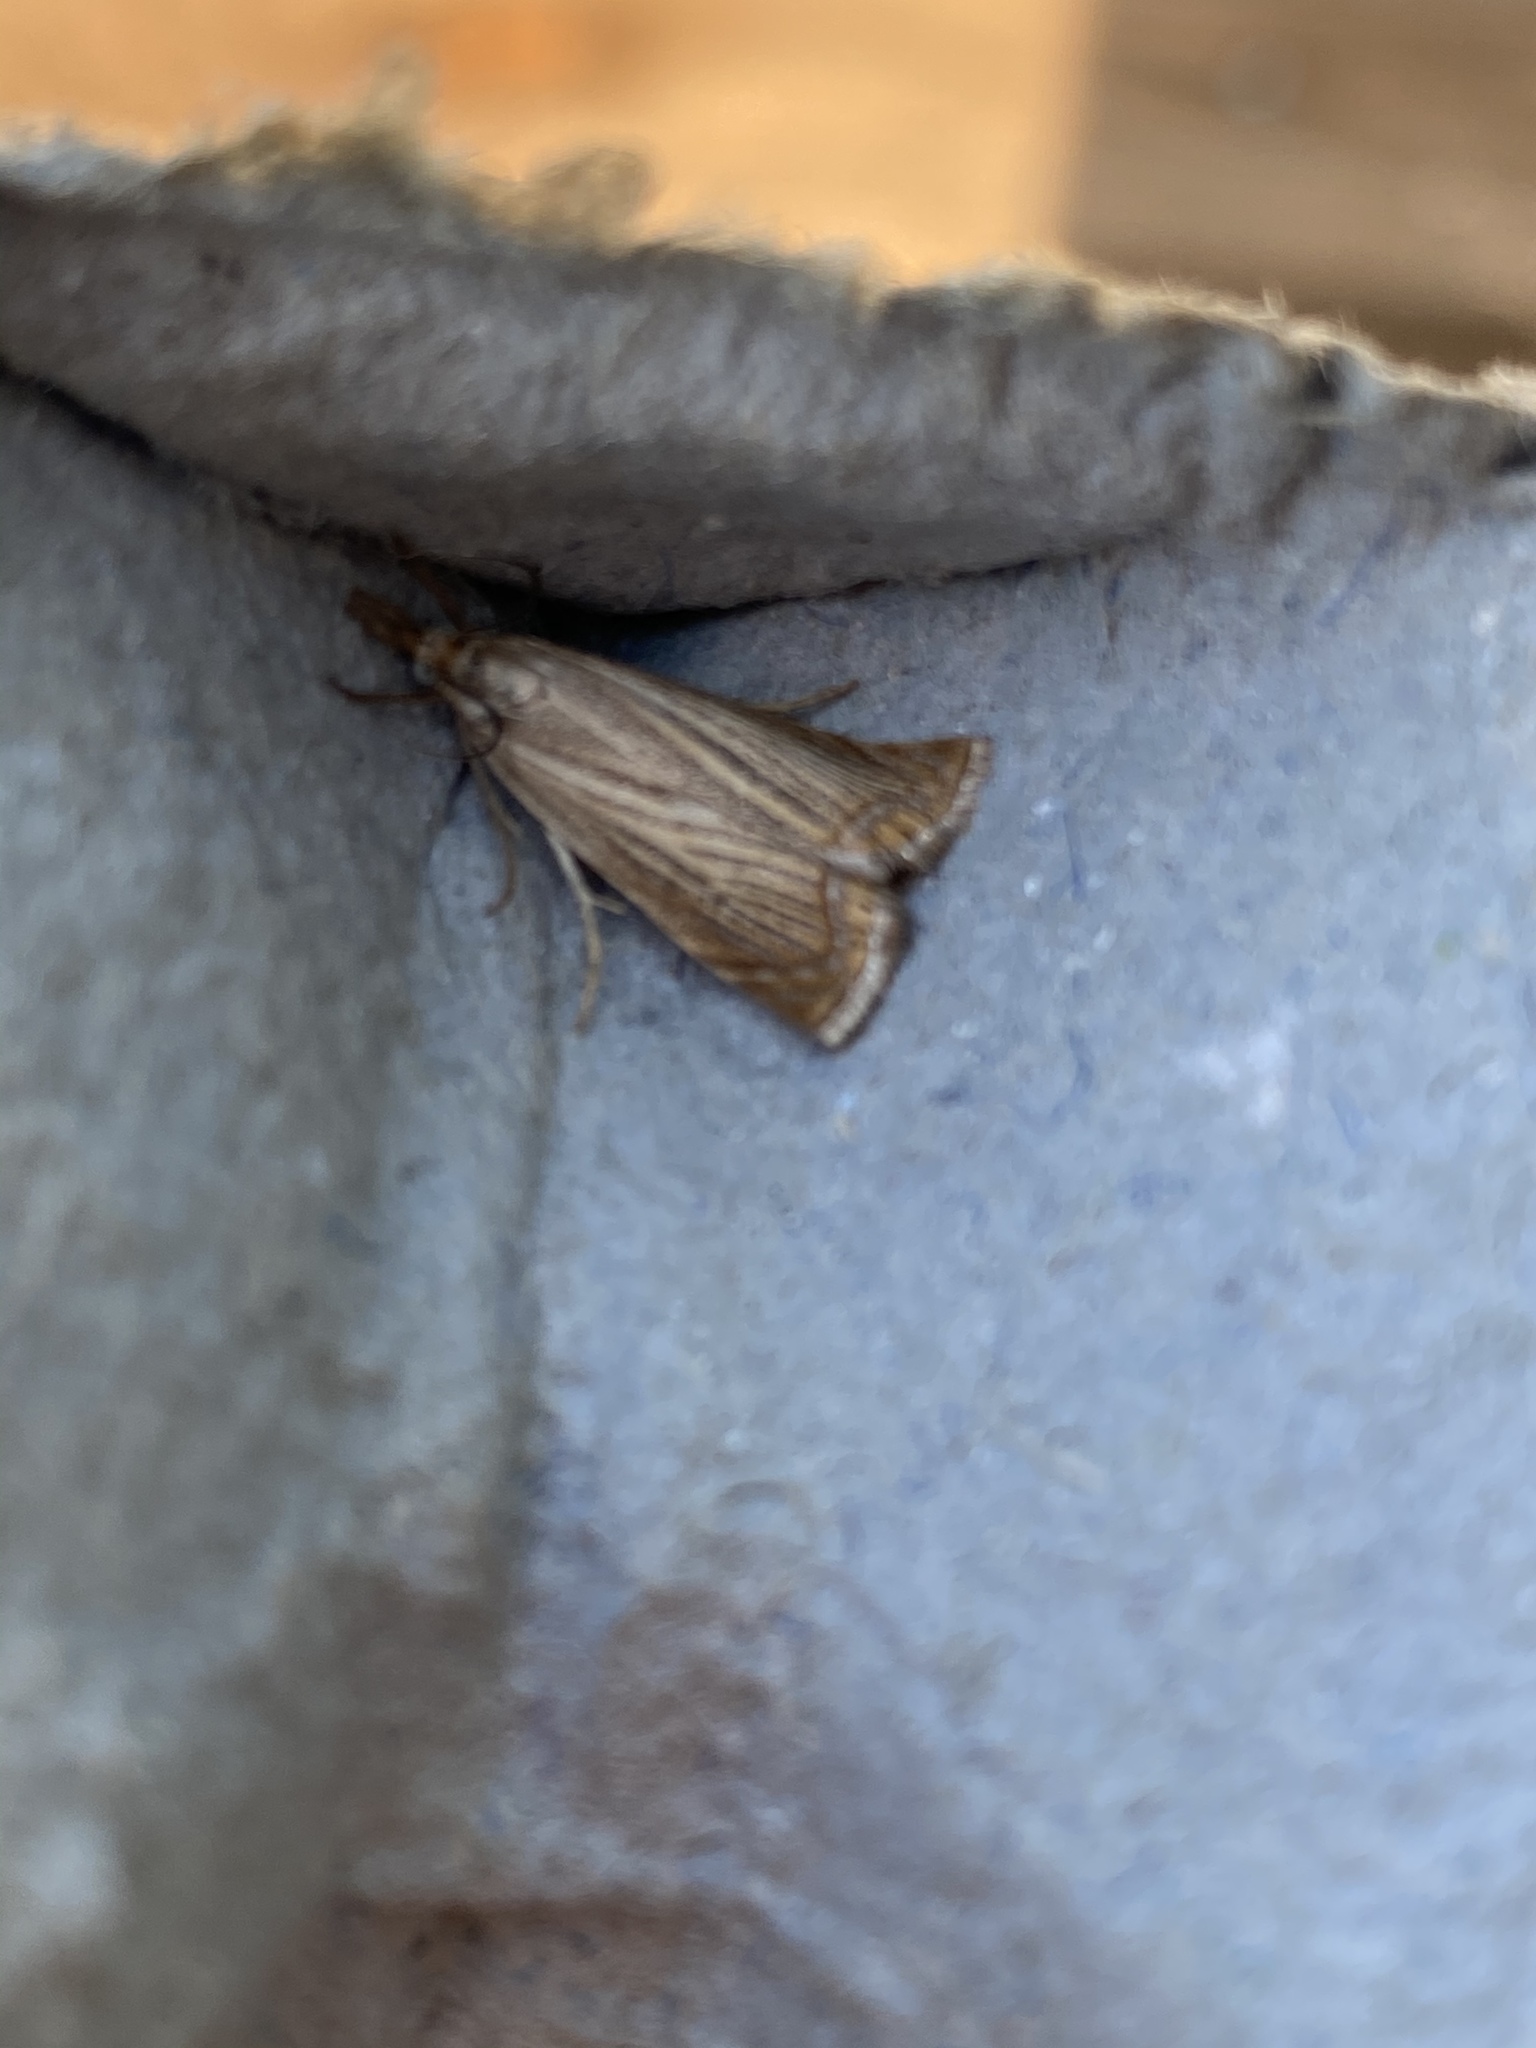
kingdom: Animalia
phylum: Arthropoda
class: Insecta
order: Lepidoptera
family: Crambidae
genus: Chrysoteuchia
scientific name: Chrysoteuchia culmella
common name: Garden grass-veneer
